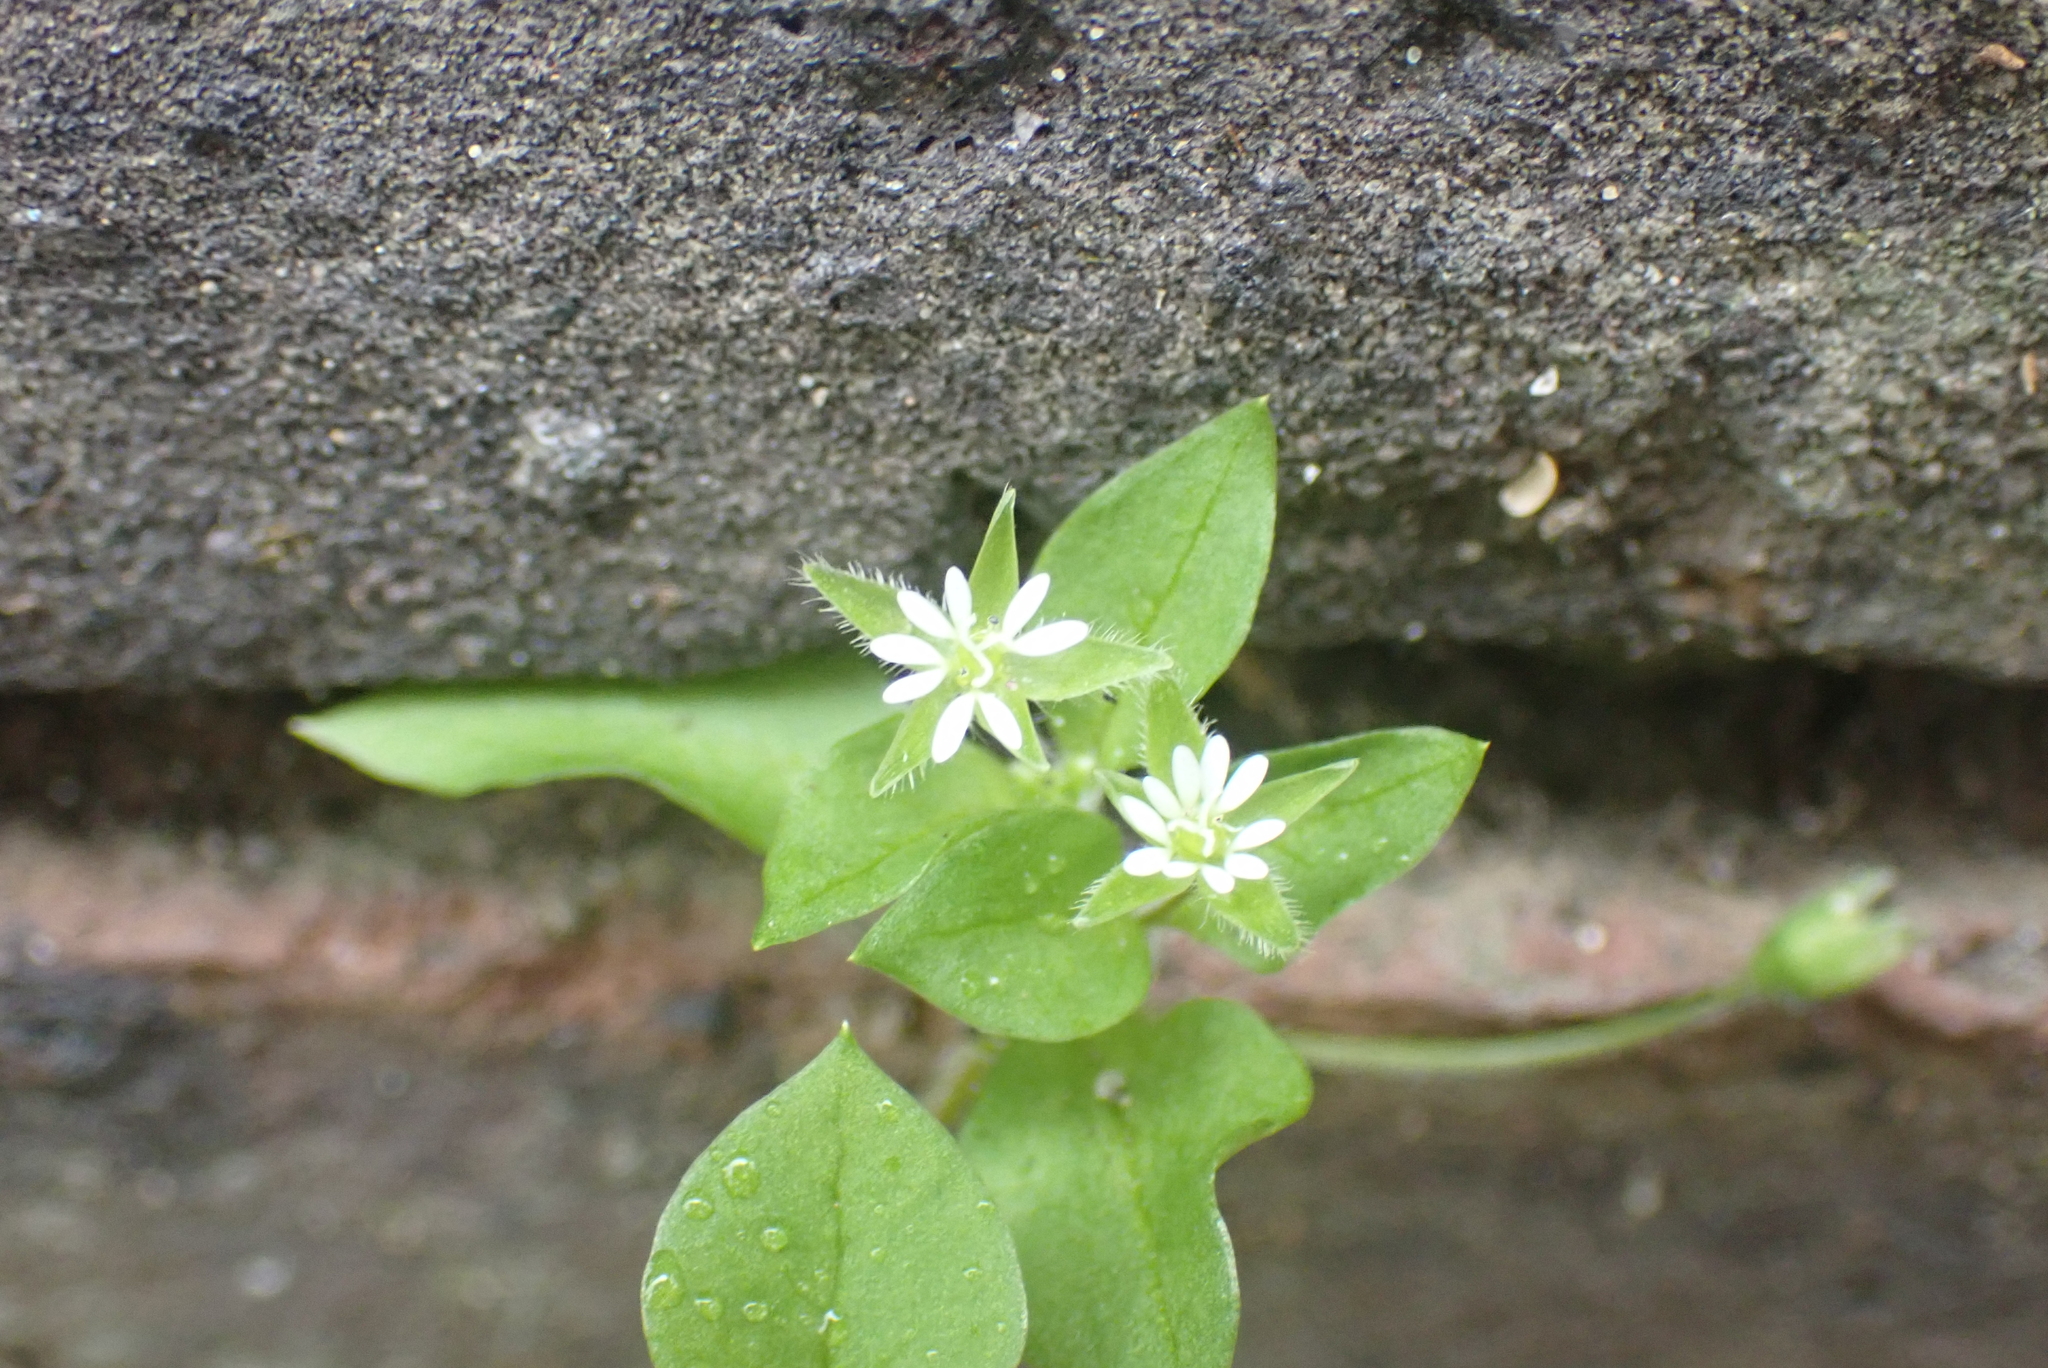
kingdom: Plantae
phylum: Tracheophyta
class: Magnoliopsida
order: Caryophyllales
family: Caryophyllaceae
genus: Stellaria
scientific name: Stellaria media
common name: Common chickweed
